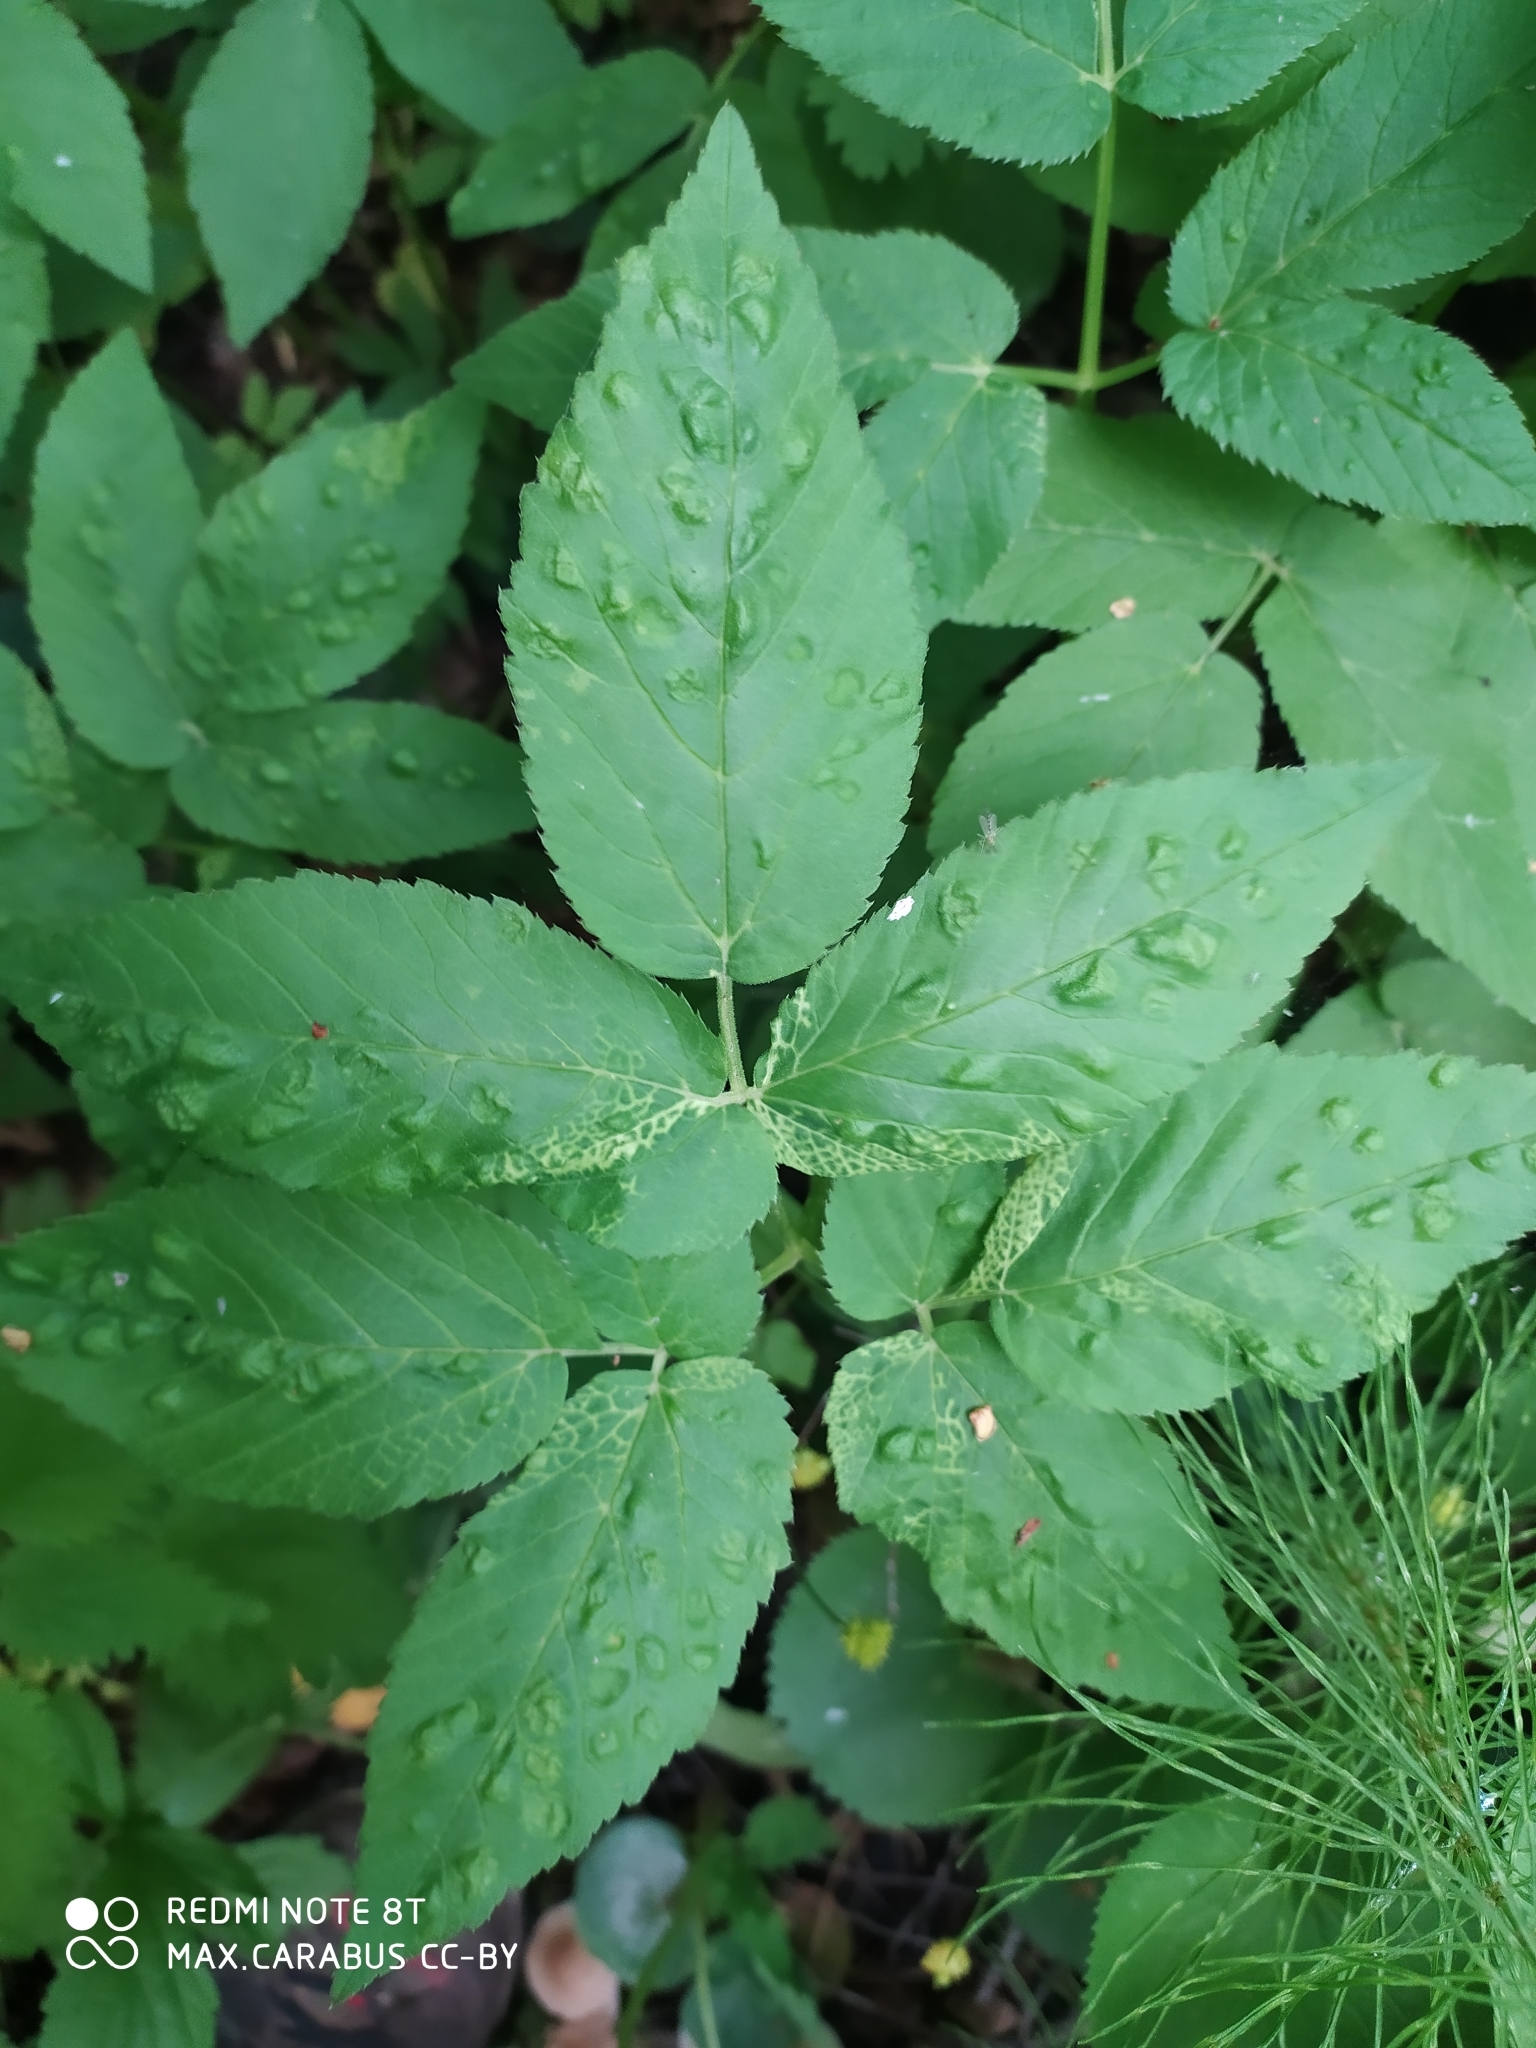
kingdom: Plantae
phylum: Tracheophyta
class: Magnoliopsida
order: Apiales
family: Apiaceae
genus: Aegopodium
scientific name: Aegopodium podagraria
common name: Ground-elder
